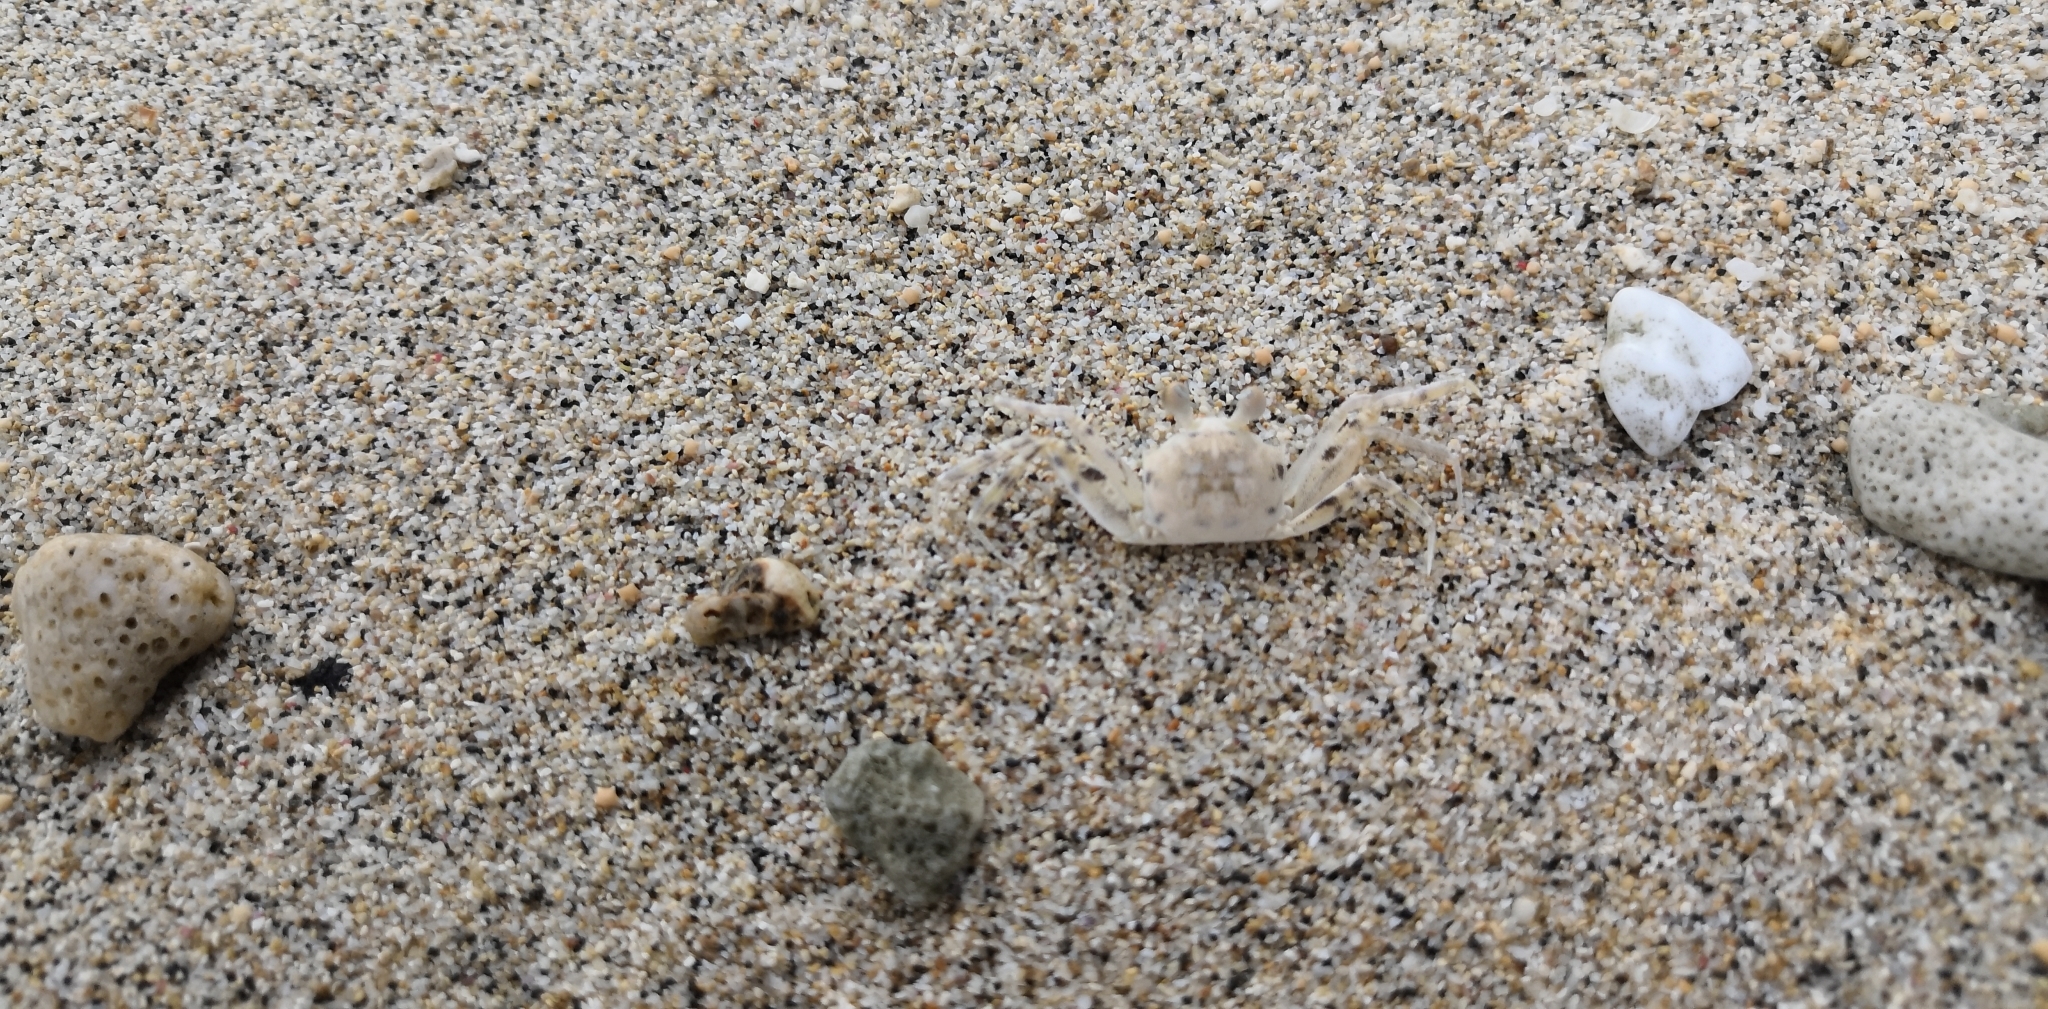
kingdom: Animalia
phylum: Arthropoda
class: Malacostraca
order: Decapoda
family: Ocypodidae
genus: Ocypode
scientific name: Ocypode pallidula
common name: Pallid ghost crab
